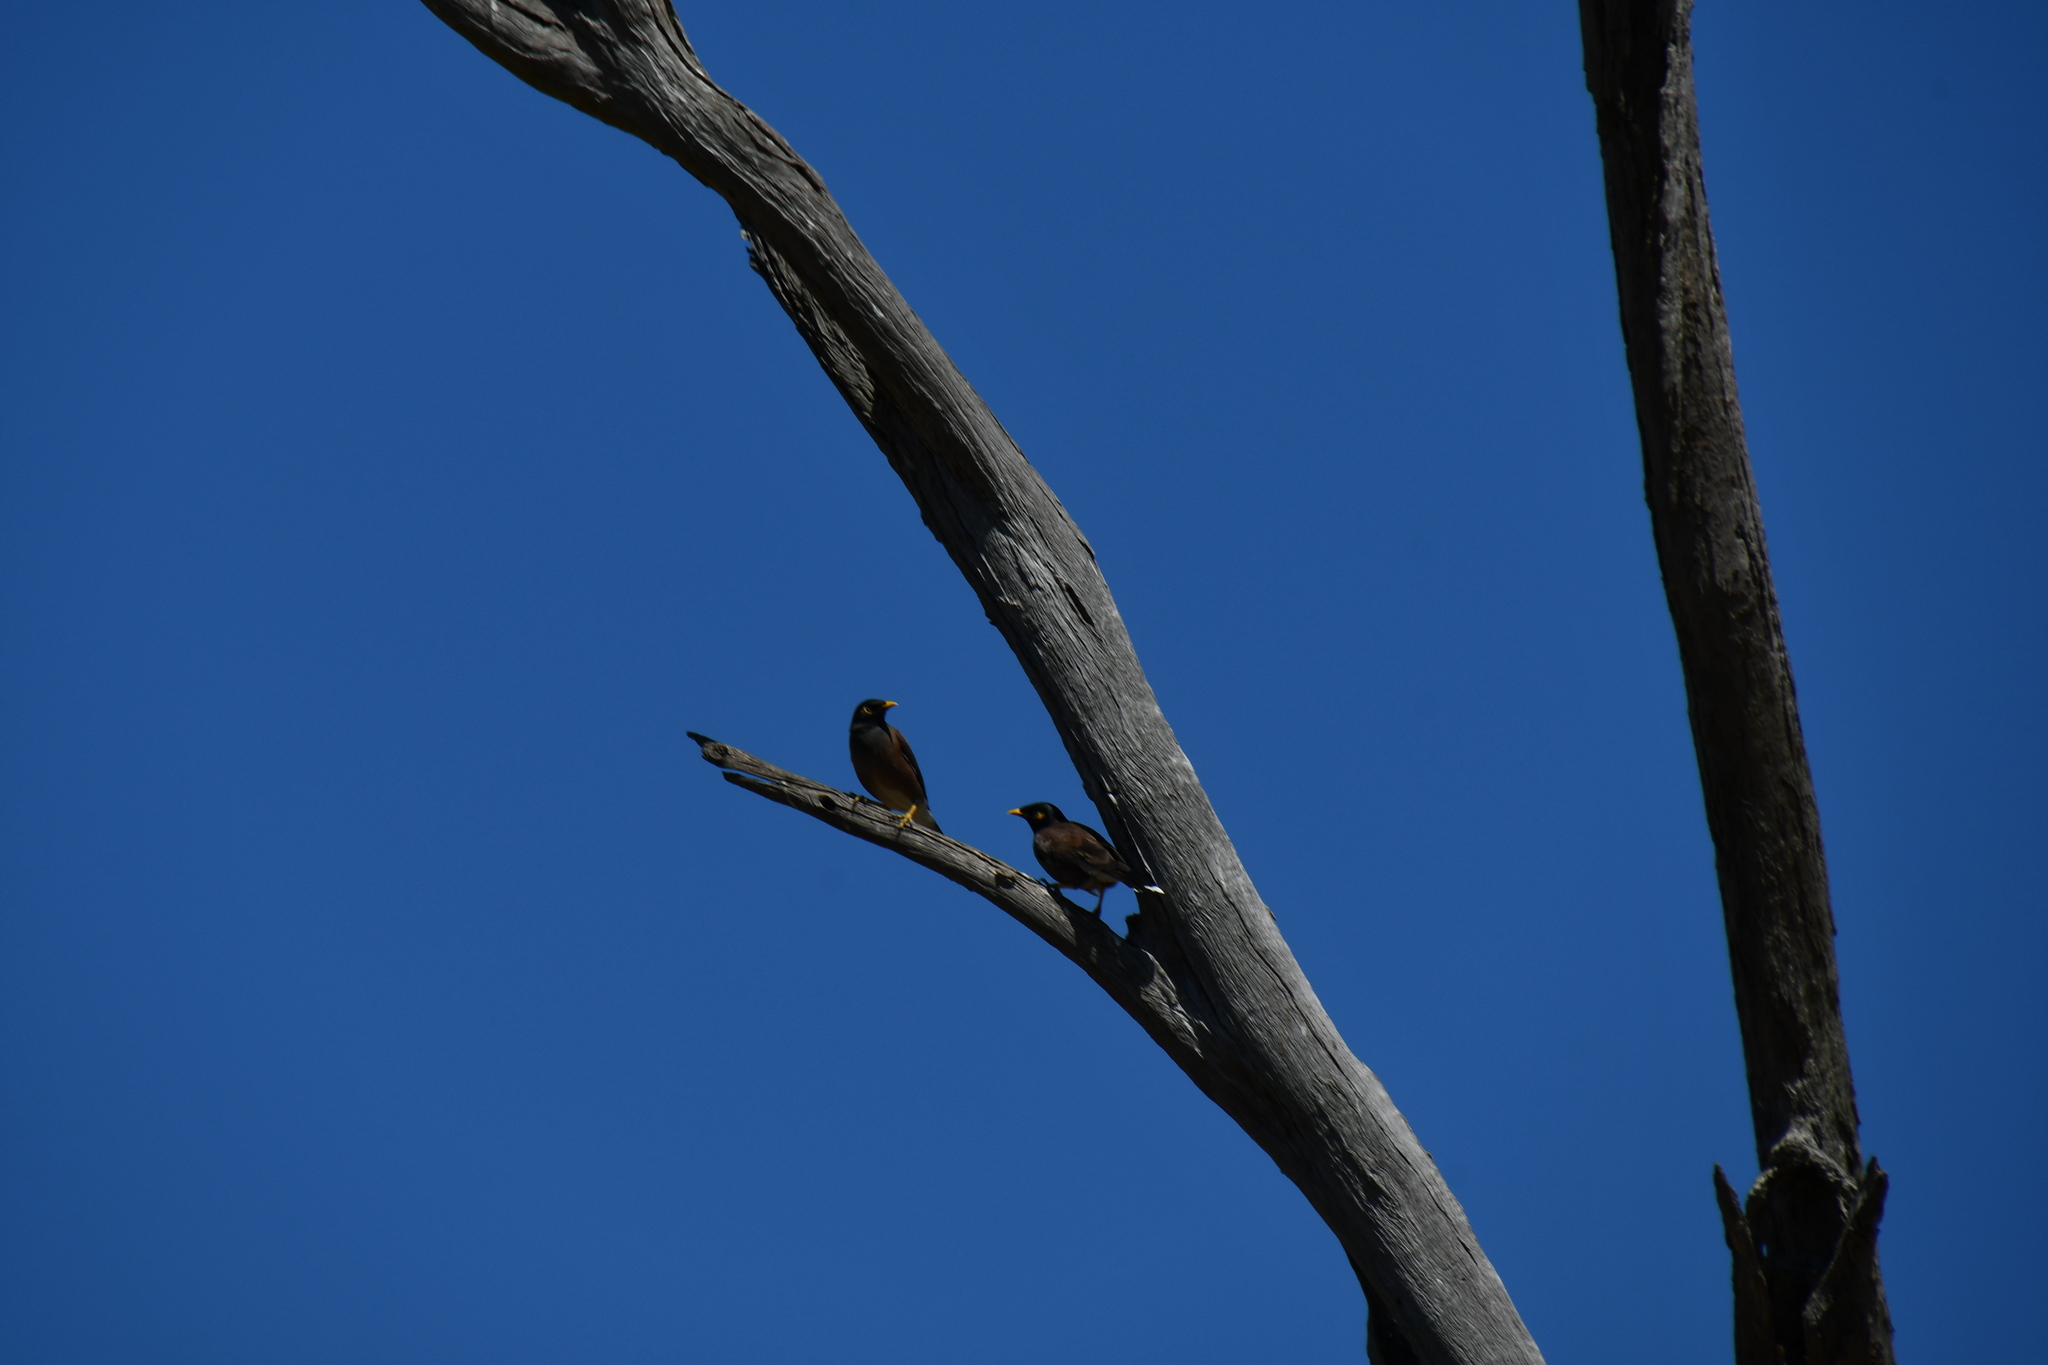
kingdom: Animalia
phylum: Chordata
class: Aves
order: Passeriformes
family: Sturnidae
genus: Acridotheres
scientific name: Acridotheres tristis
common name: Common myna
